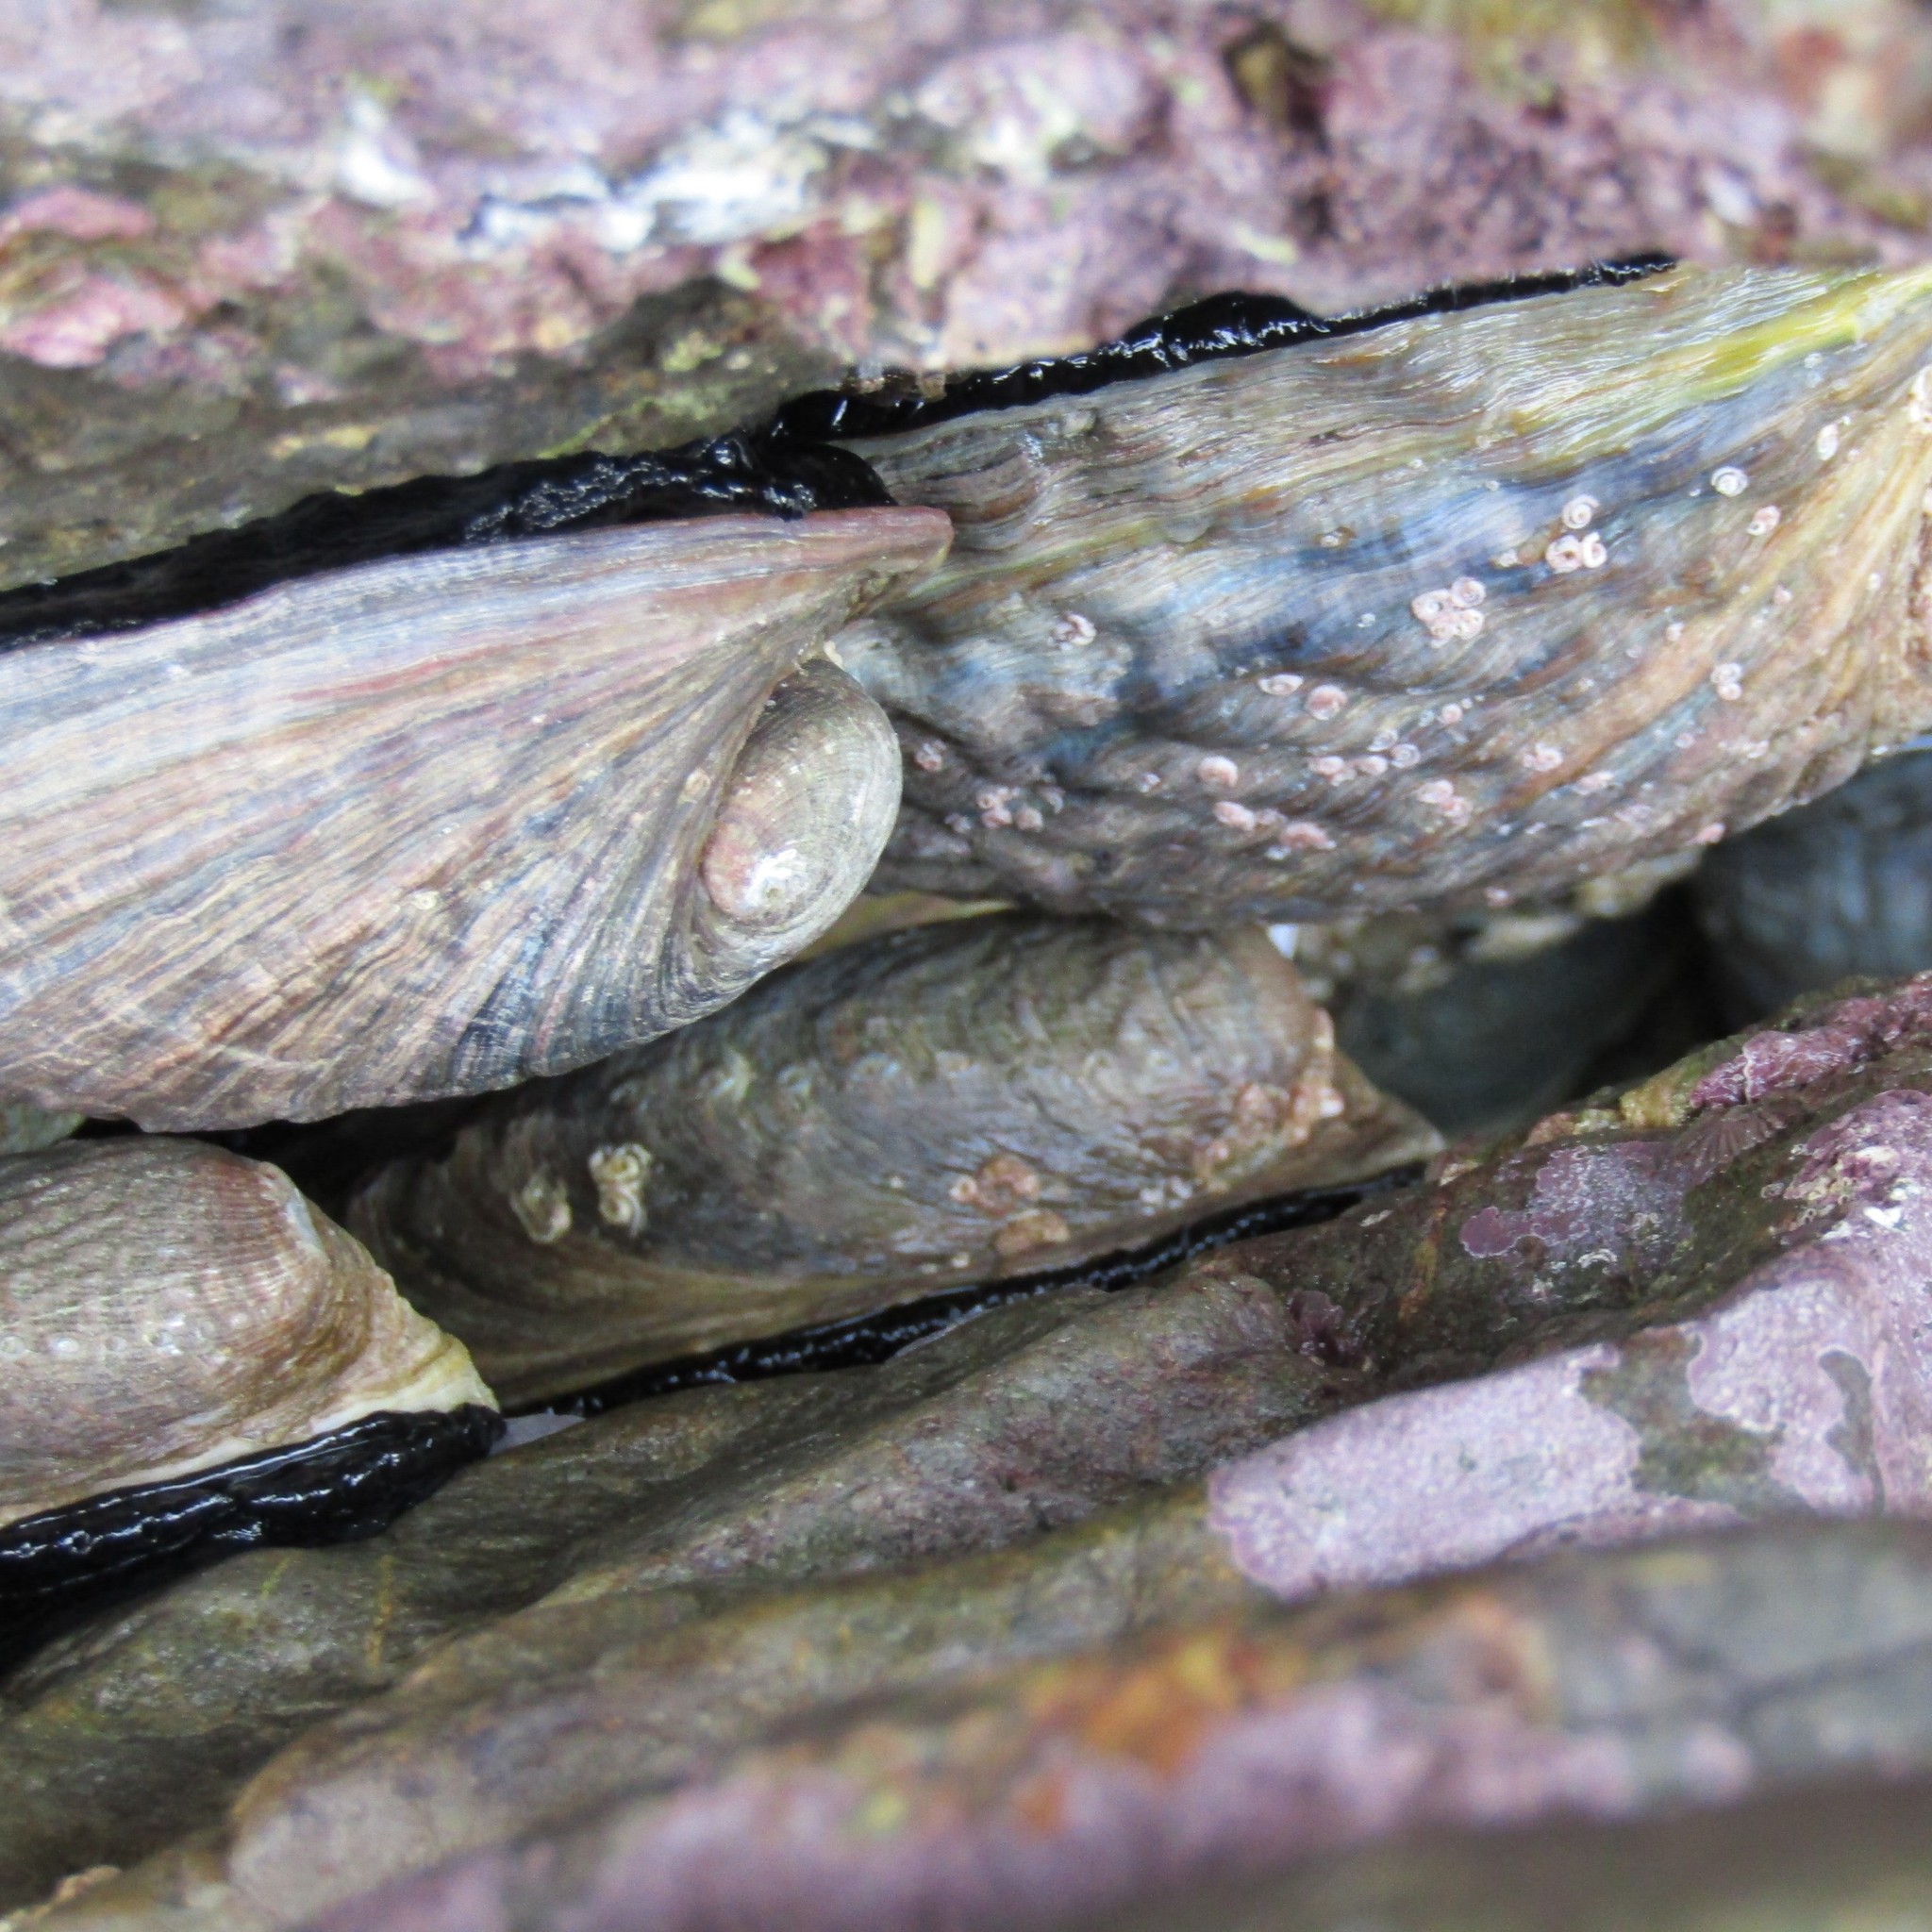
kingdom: Animalia
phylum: Mollusca
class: Gastropoda
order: Lepetellida
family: Haliotidae
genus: Haliotis
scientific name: Haliotis iris
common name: Abalone
